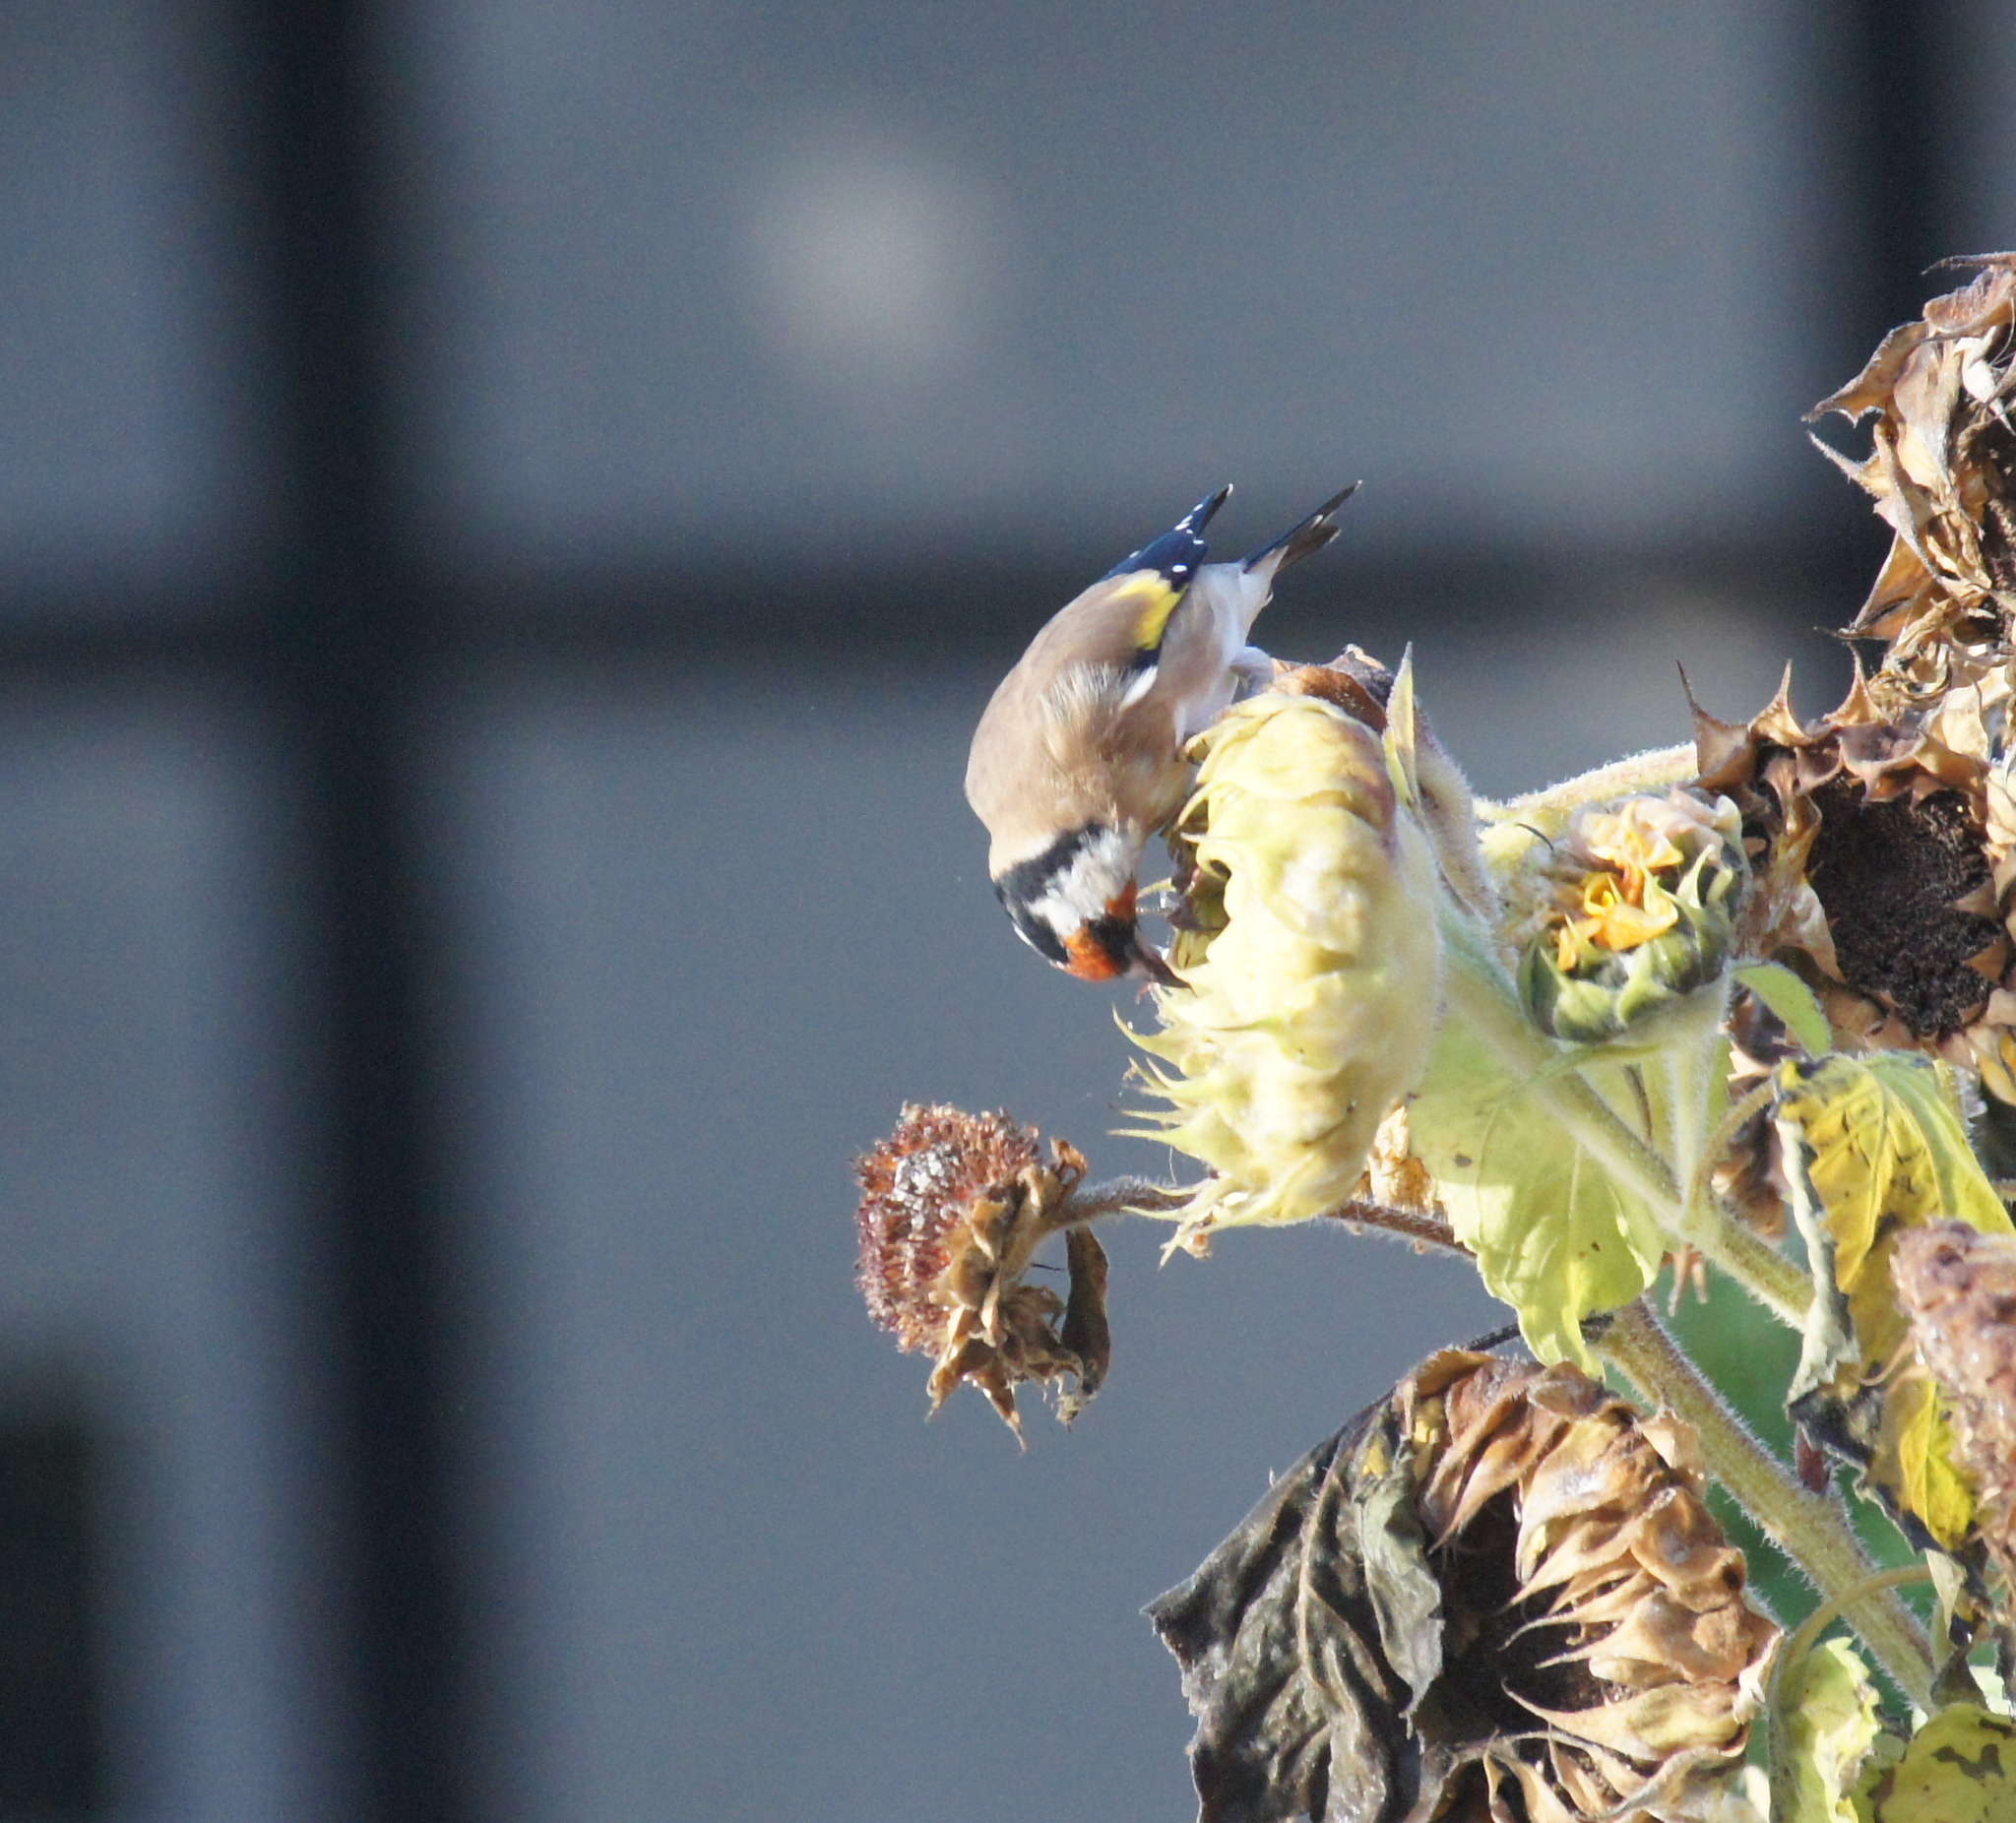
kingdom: Animalia
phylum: Chordata
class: Aves
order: Passeriformes
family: Fringillidae
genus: Carduelis
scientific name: Carduelis carduelis
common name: European goldfinch
